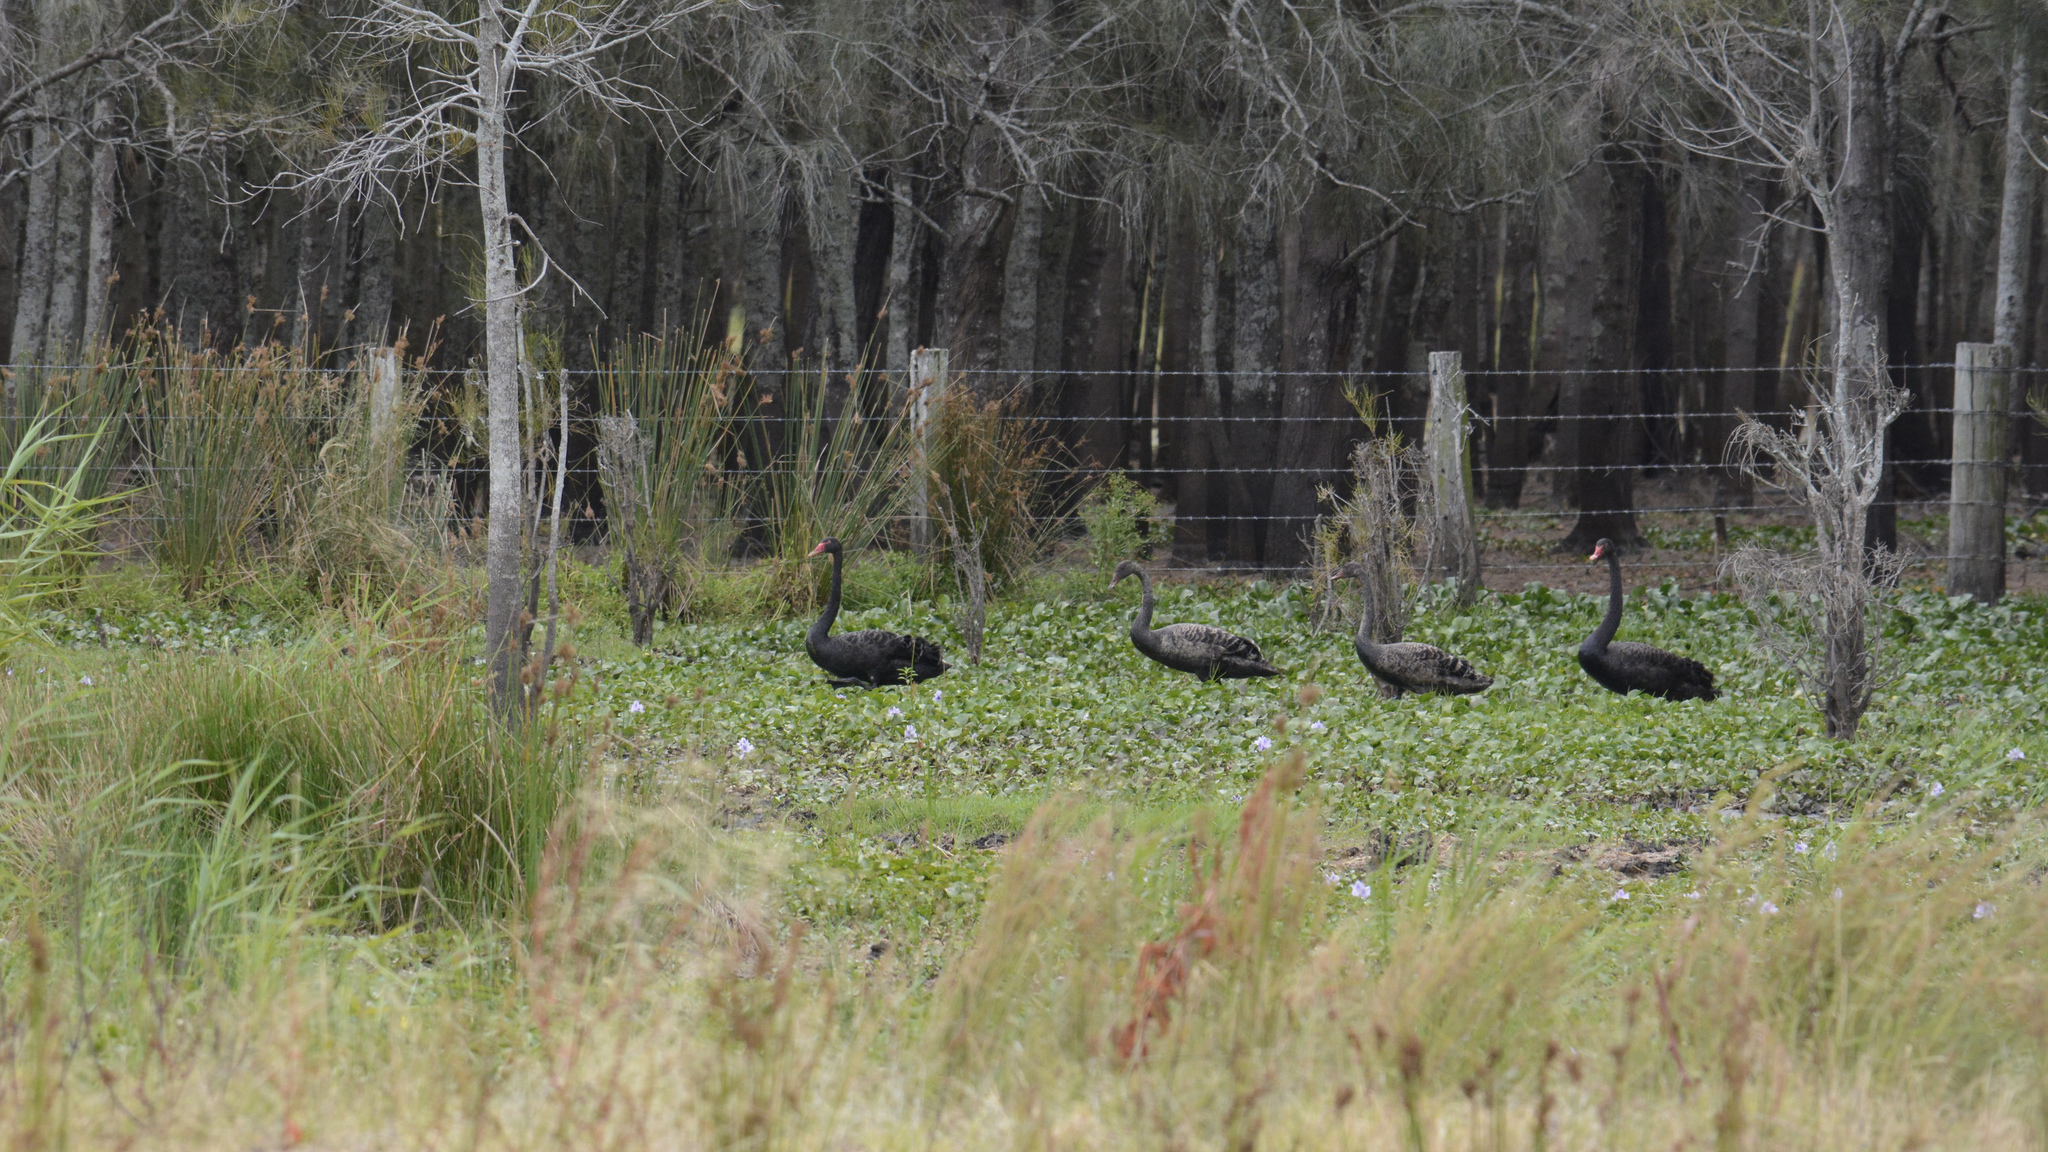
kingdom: Animalia
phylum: Chordata
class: Aves
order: Anseriformes
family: Anatidae
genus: Cygnus
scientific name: Cygnus atratus
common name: Black swan
